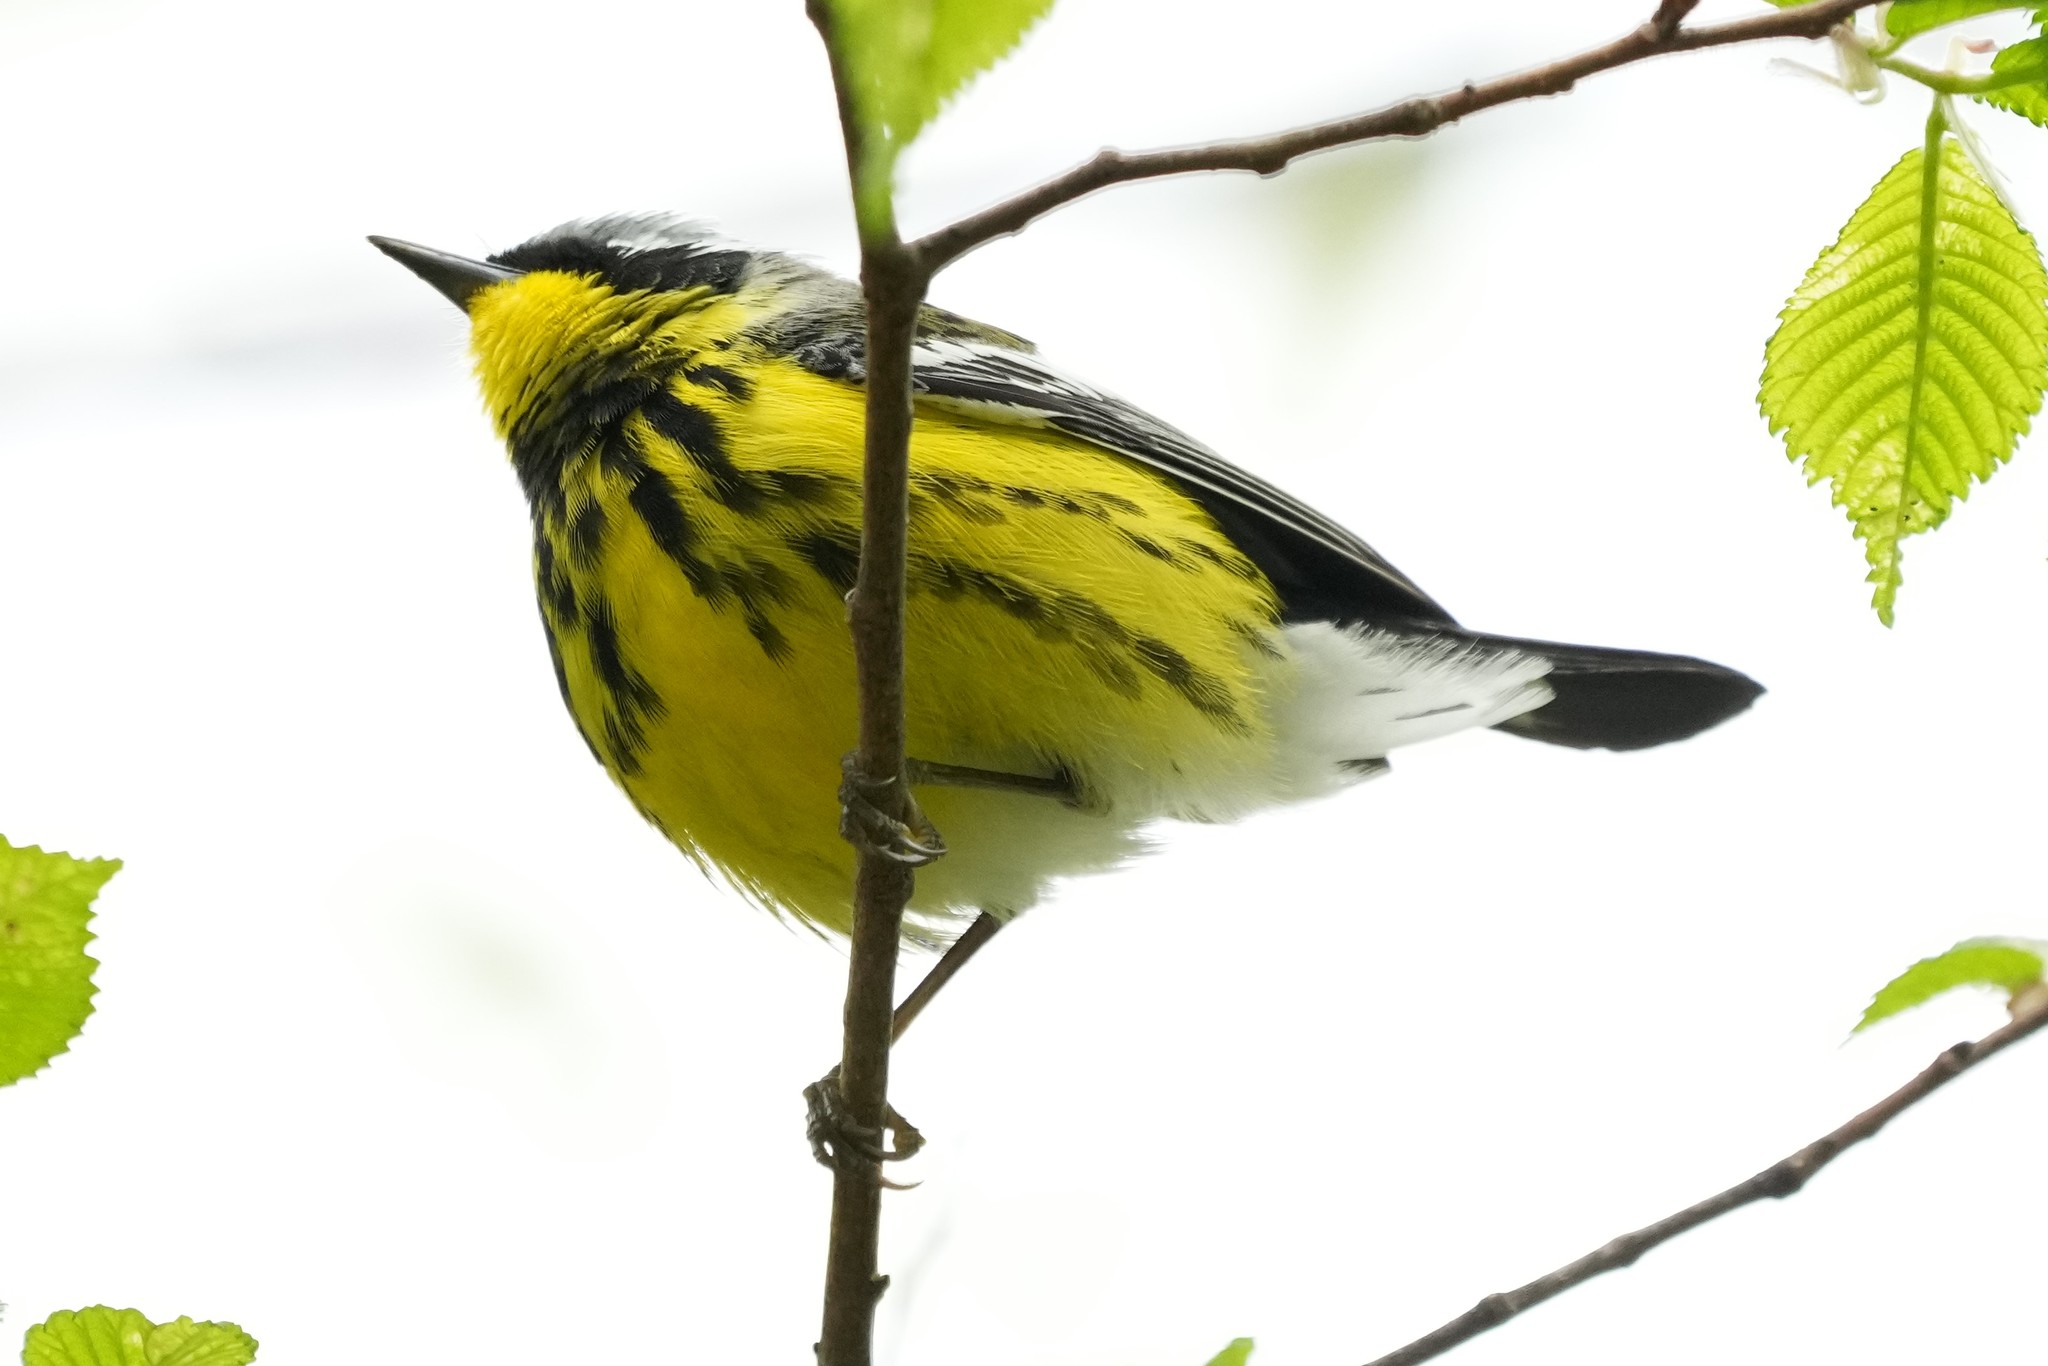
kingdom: Animalia
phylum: Chordata
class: Aves
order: Passeriformes
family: Parulidae
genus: Setophaga
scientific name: Setophaga magnolia
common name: Magnolia warbler
